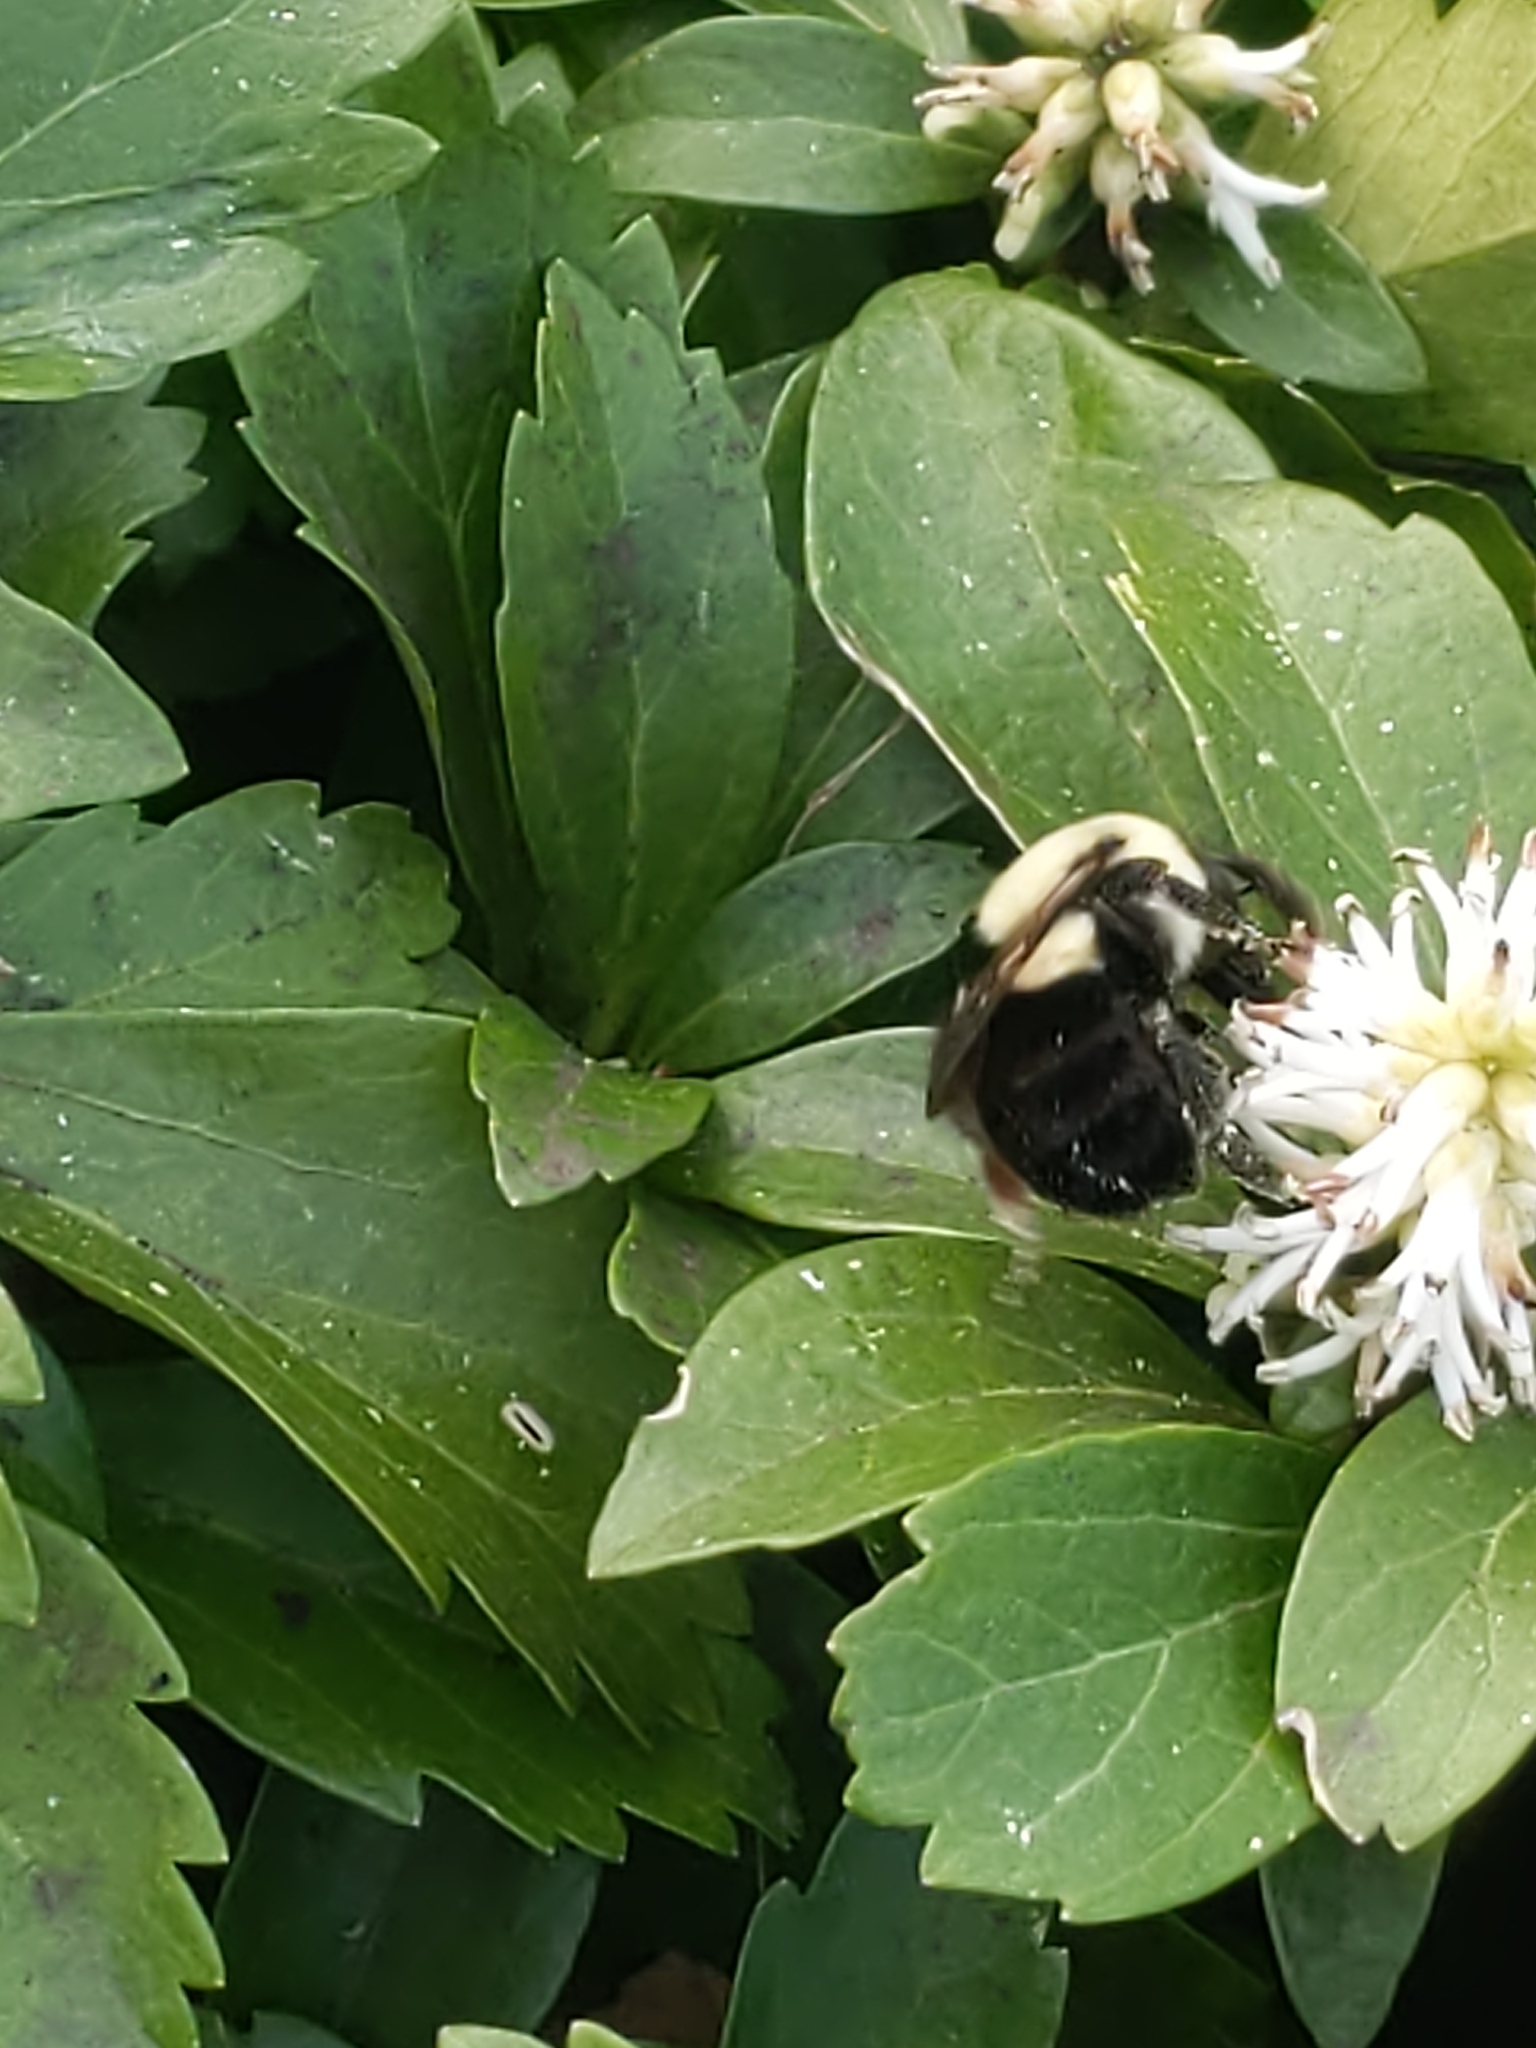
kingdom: Animalia
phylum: Arthropoda
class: Insecta
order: Hymenoptera
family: Apidae
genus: Bombus
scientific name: Bombus impatiens
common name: Common eastern bumble bee
